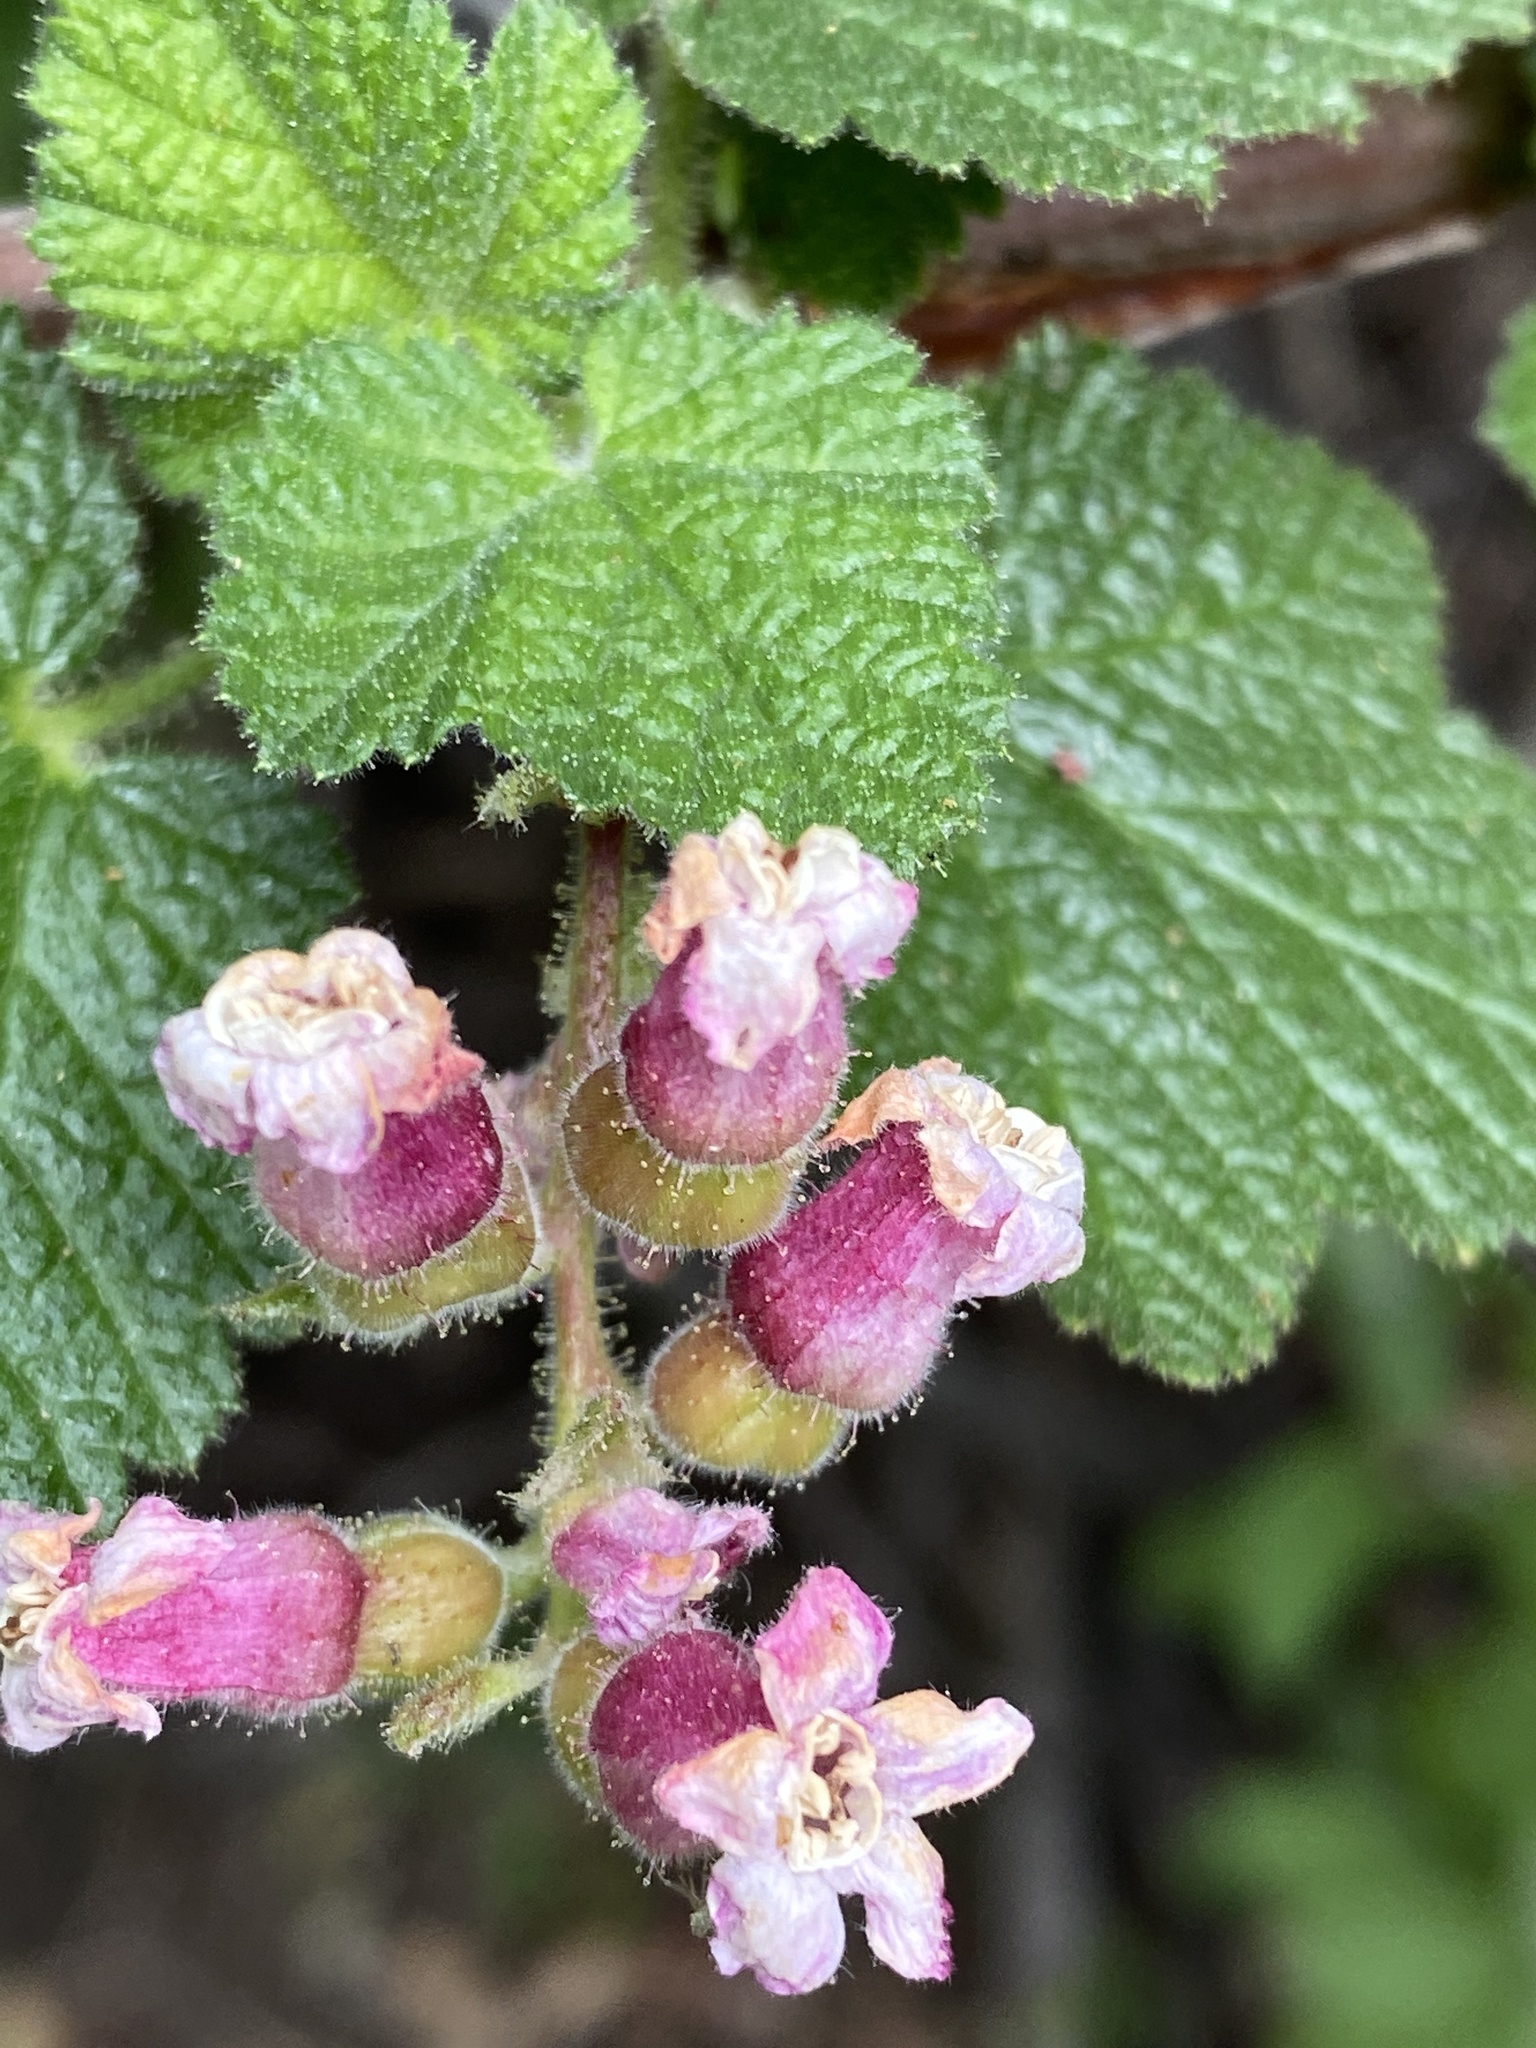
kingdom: Plantae
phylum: Tracheophyta
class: Magnoliopsida
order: Saxifragales
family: Grossulariaceae
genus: Ribes
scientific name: Ribes malvaceum
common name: Chaparral currant
